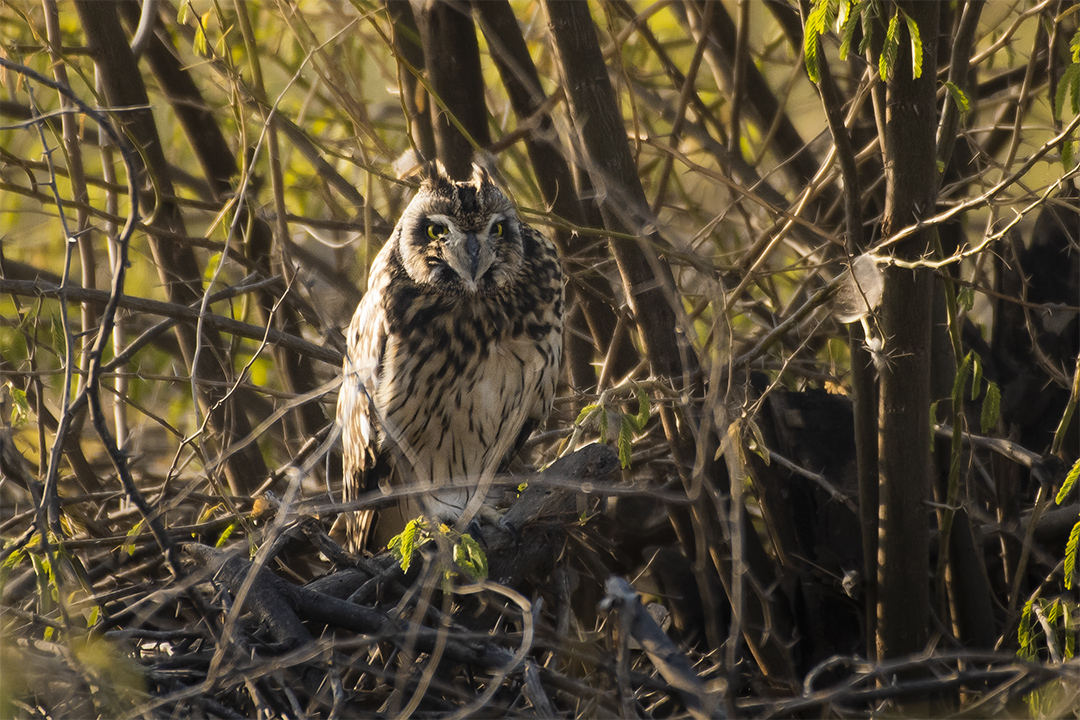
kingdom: Animalia
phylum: Chordata
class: Aves
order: Strigiformes
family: Strigidae
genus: Asio
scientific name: Asio flammeus
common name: Short-eared owl
